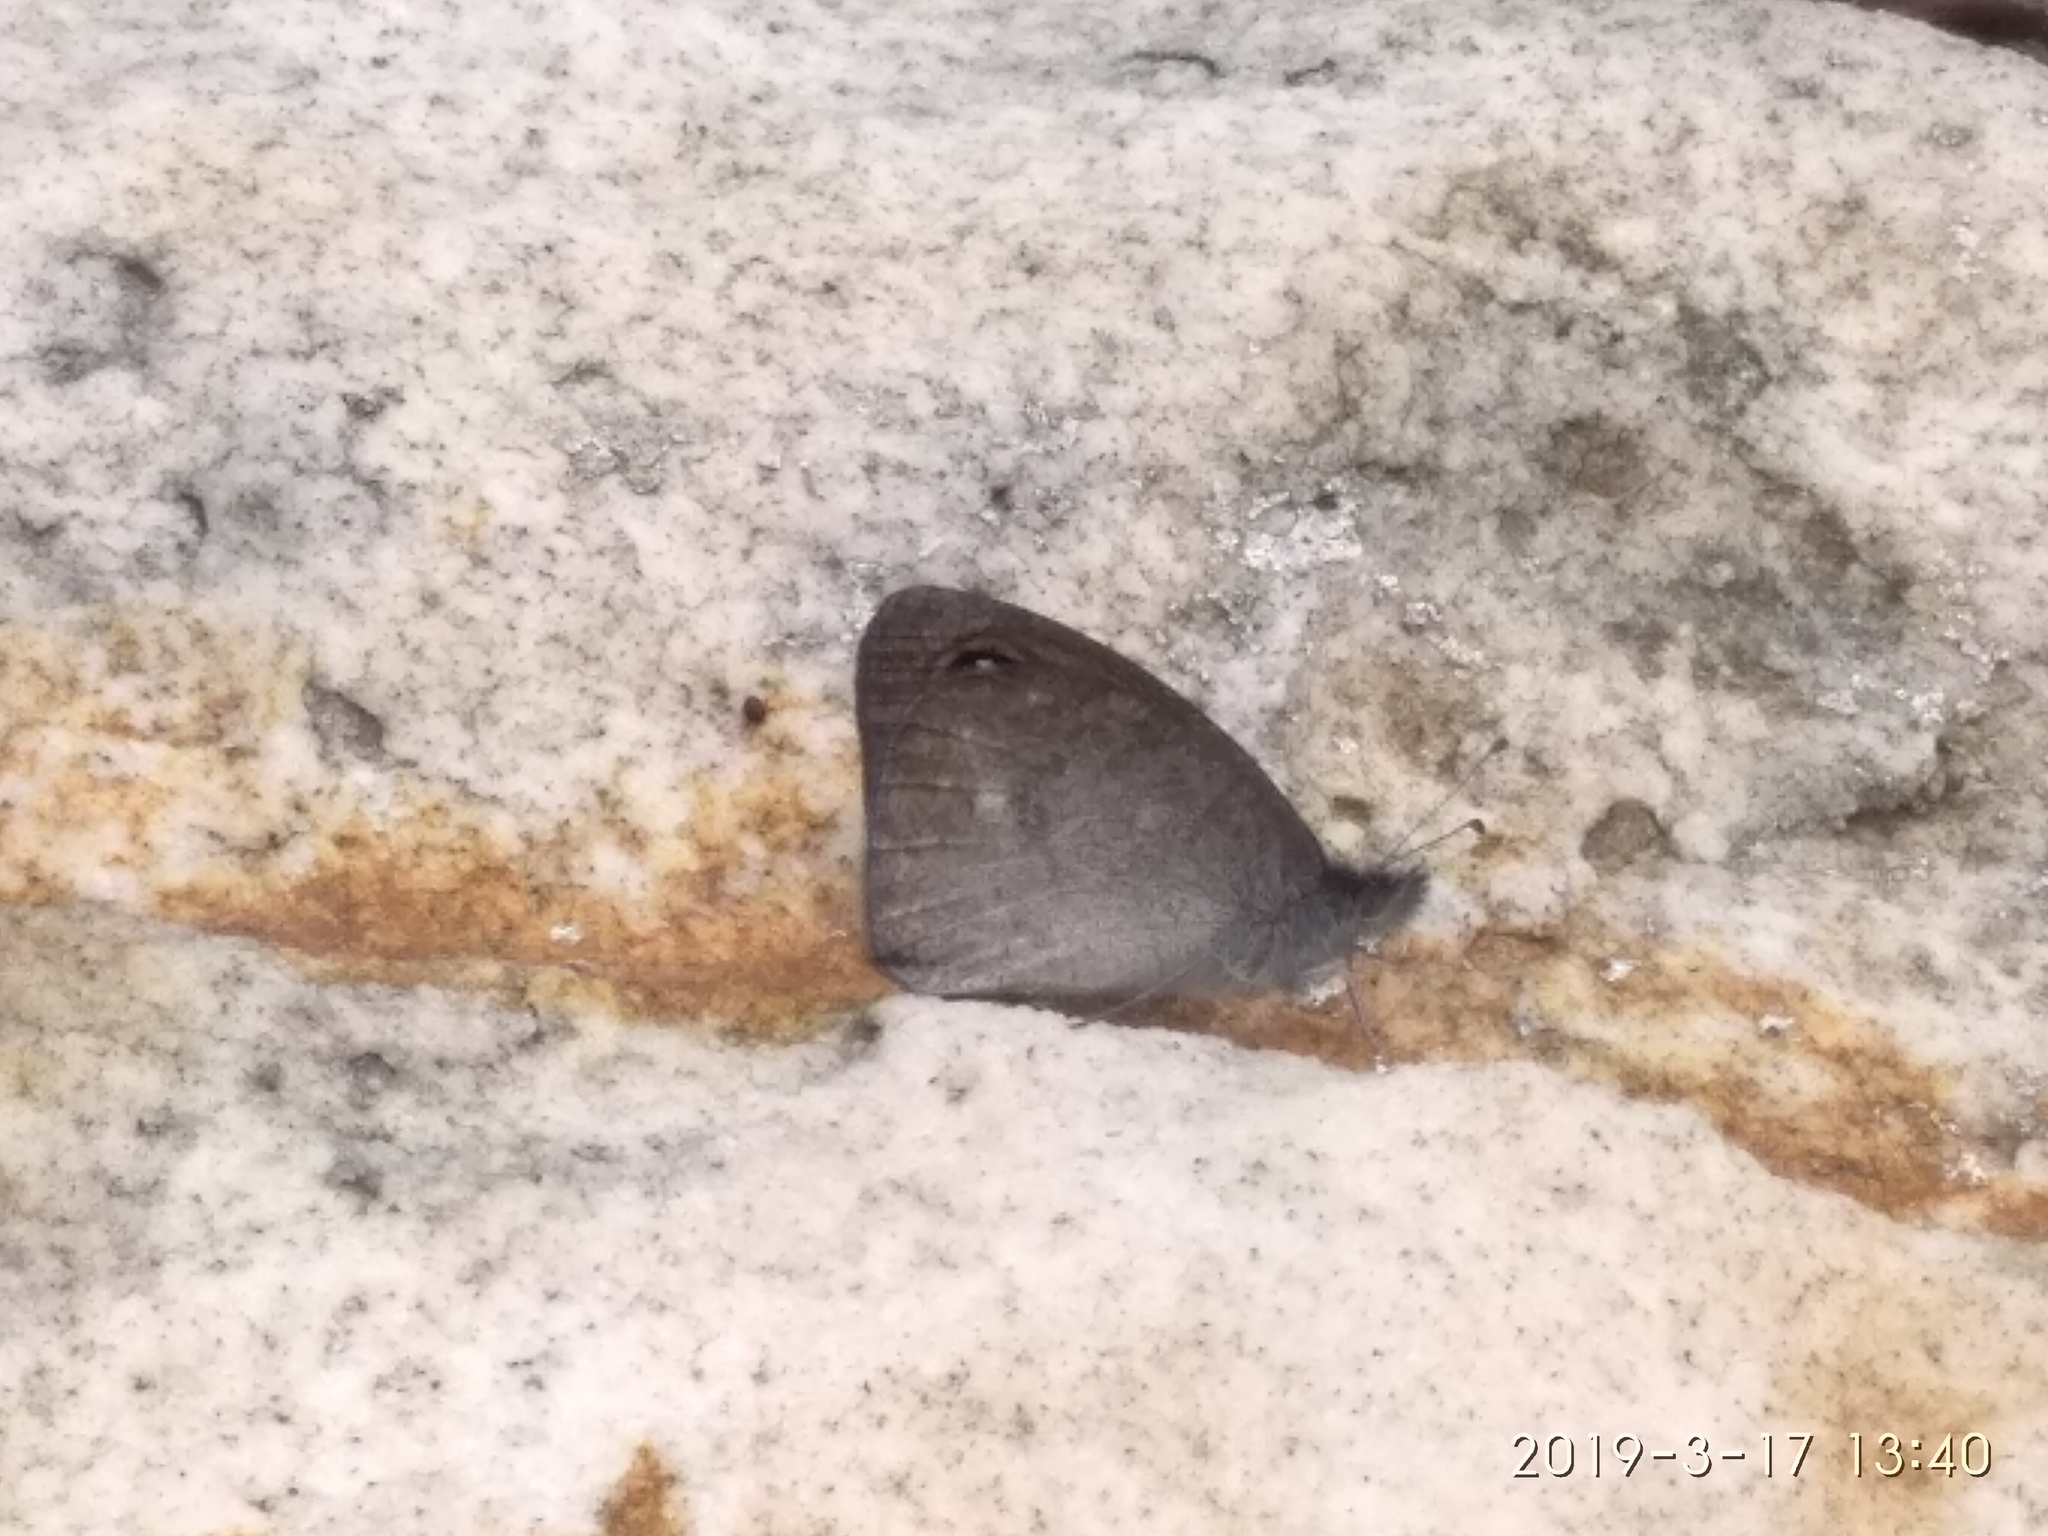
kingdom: Animalia
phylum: Arthropoda
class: Insecta
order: Lepidoptera
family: Nymphalidae
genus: Stygionympha
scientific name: Stygionympha vigilans
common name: Western hillside brown
